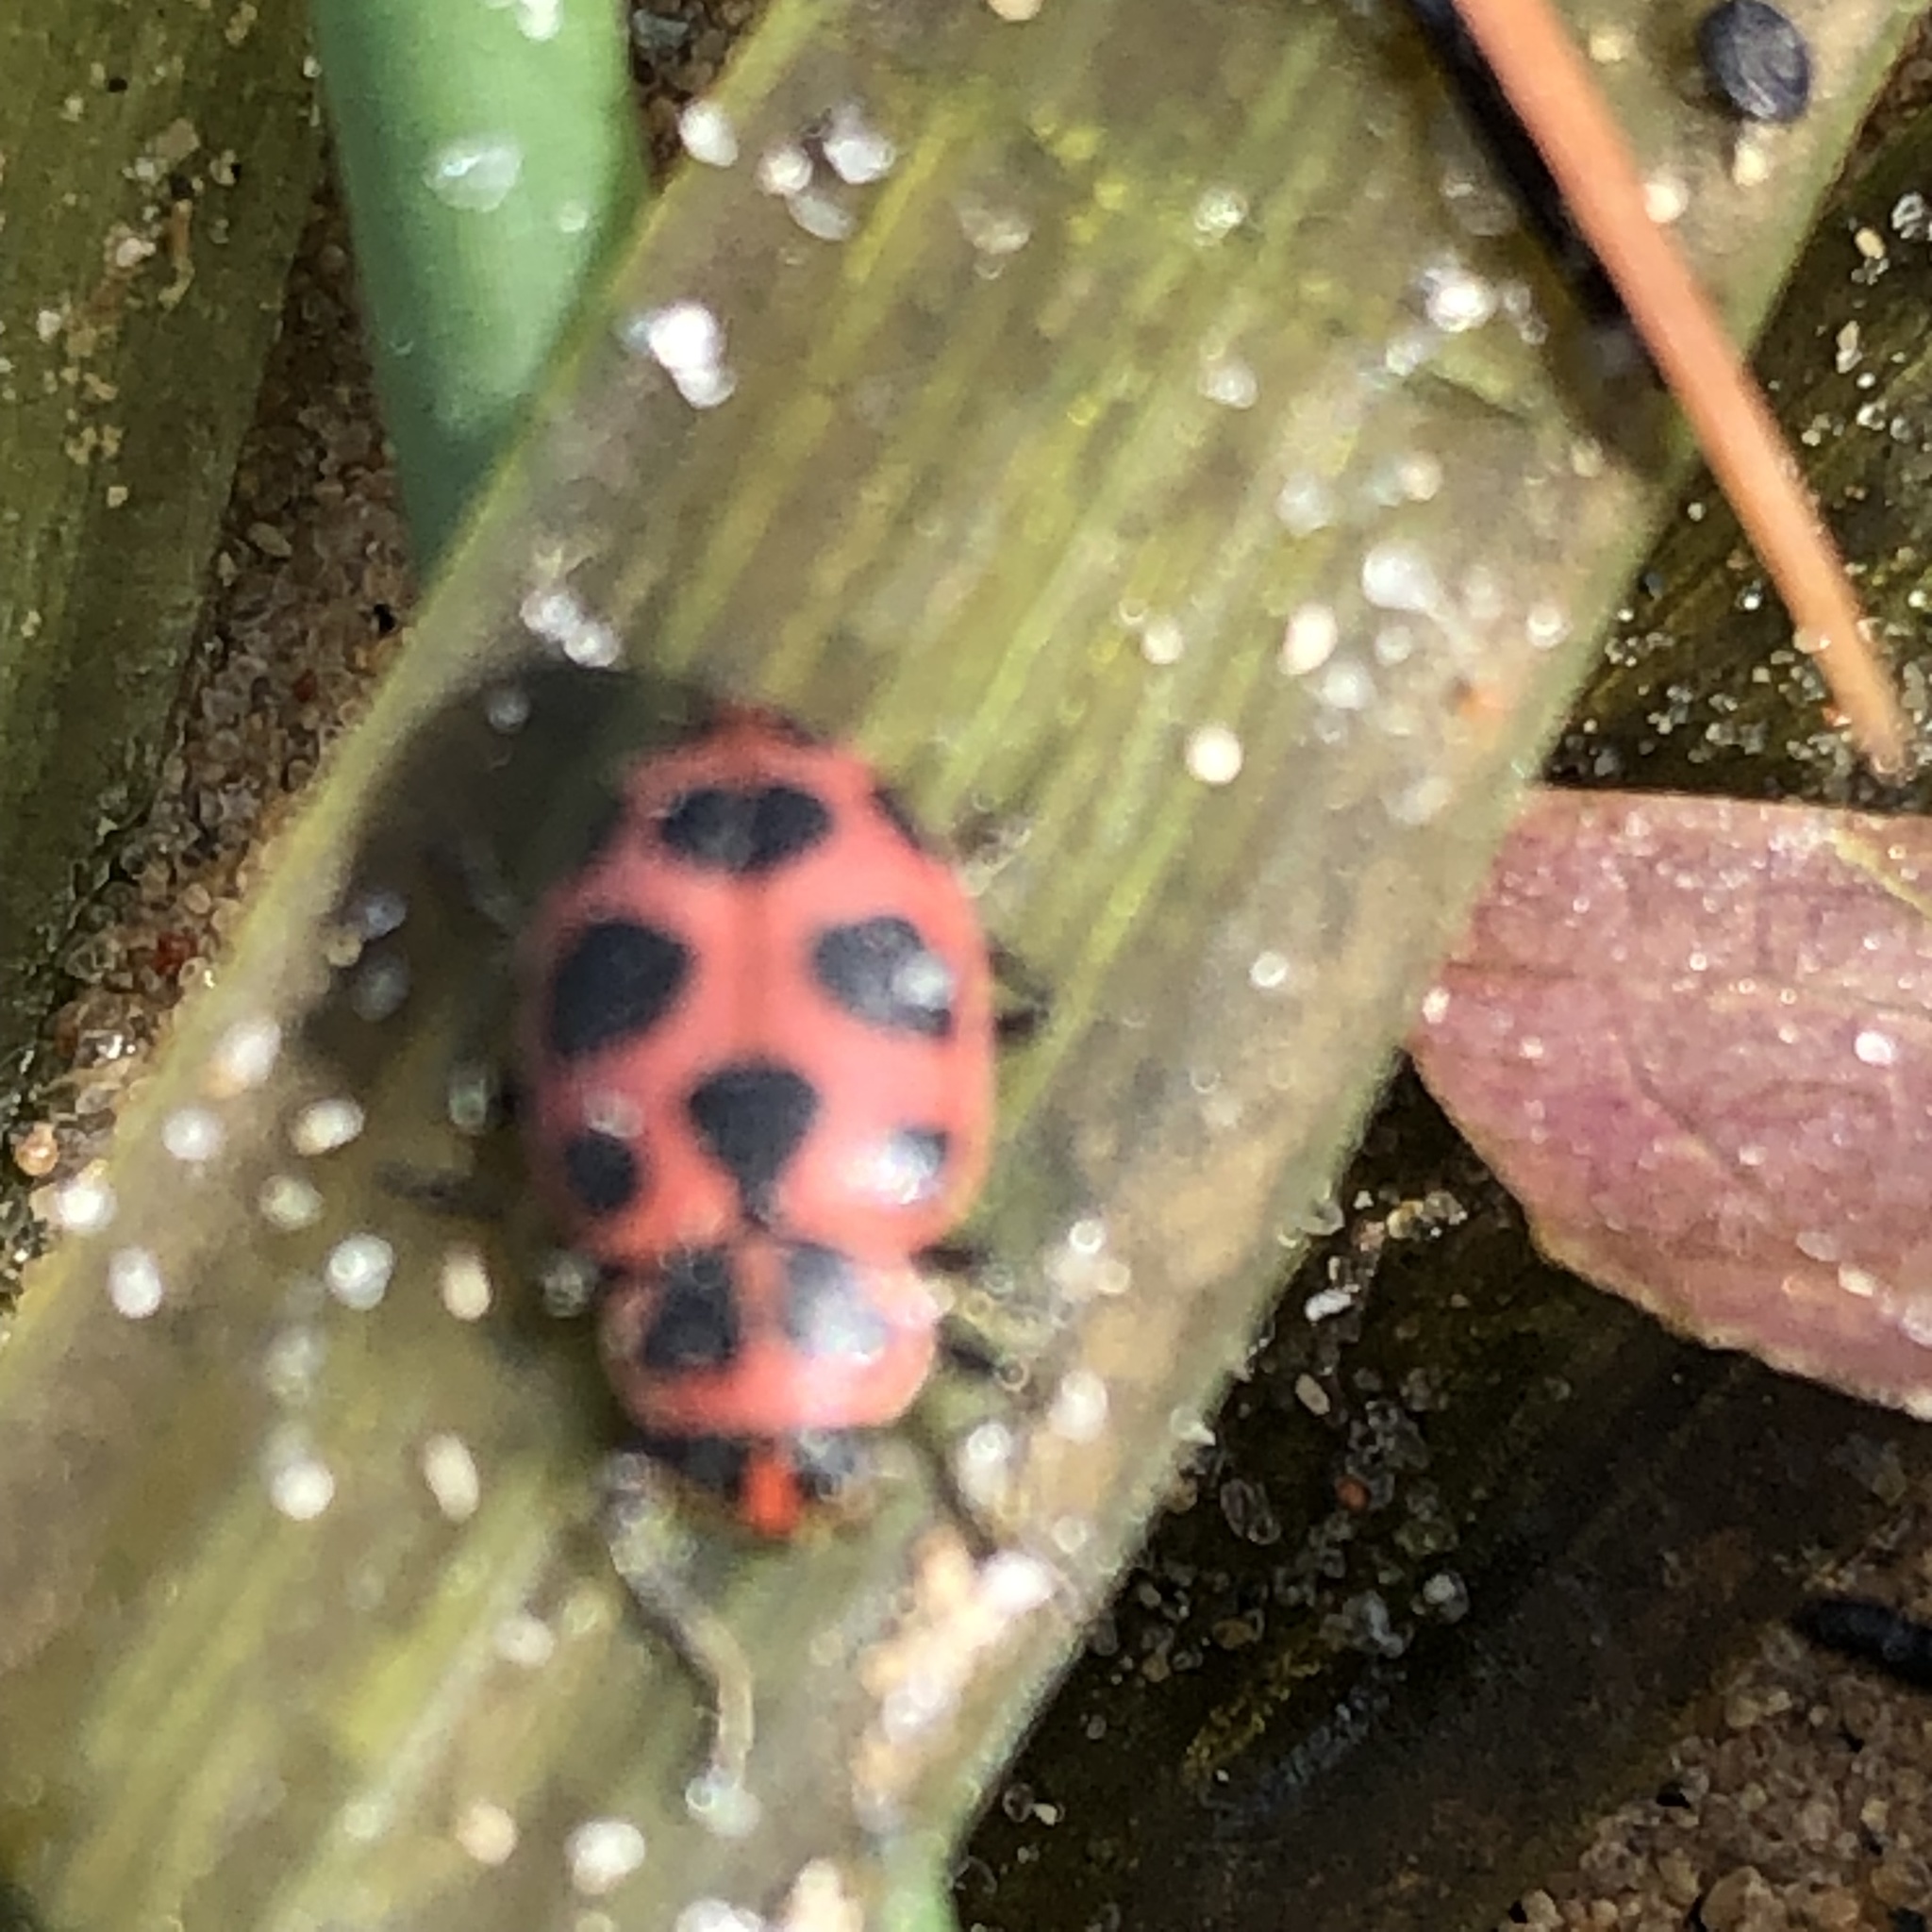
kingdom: Animalia
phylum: Arthropoda
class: Insecta
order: Coleoptera
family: Coccinellidae
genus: Coleomegilla
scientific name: Coleomegilla maculata
